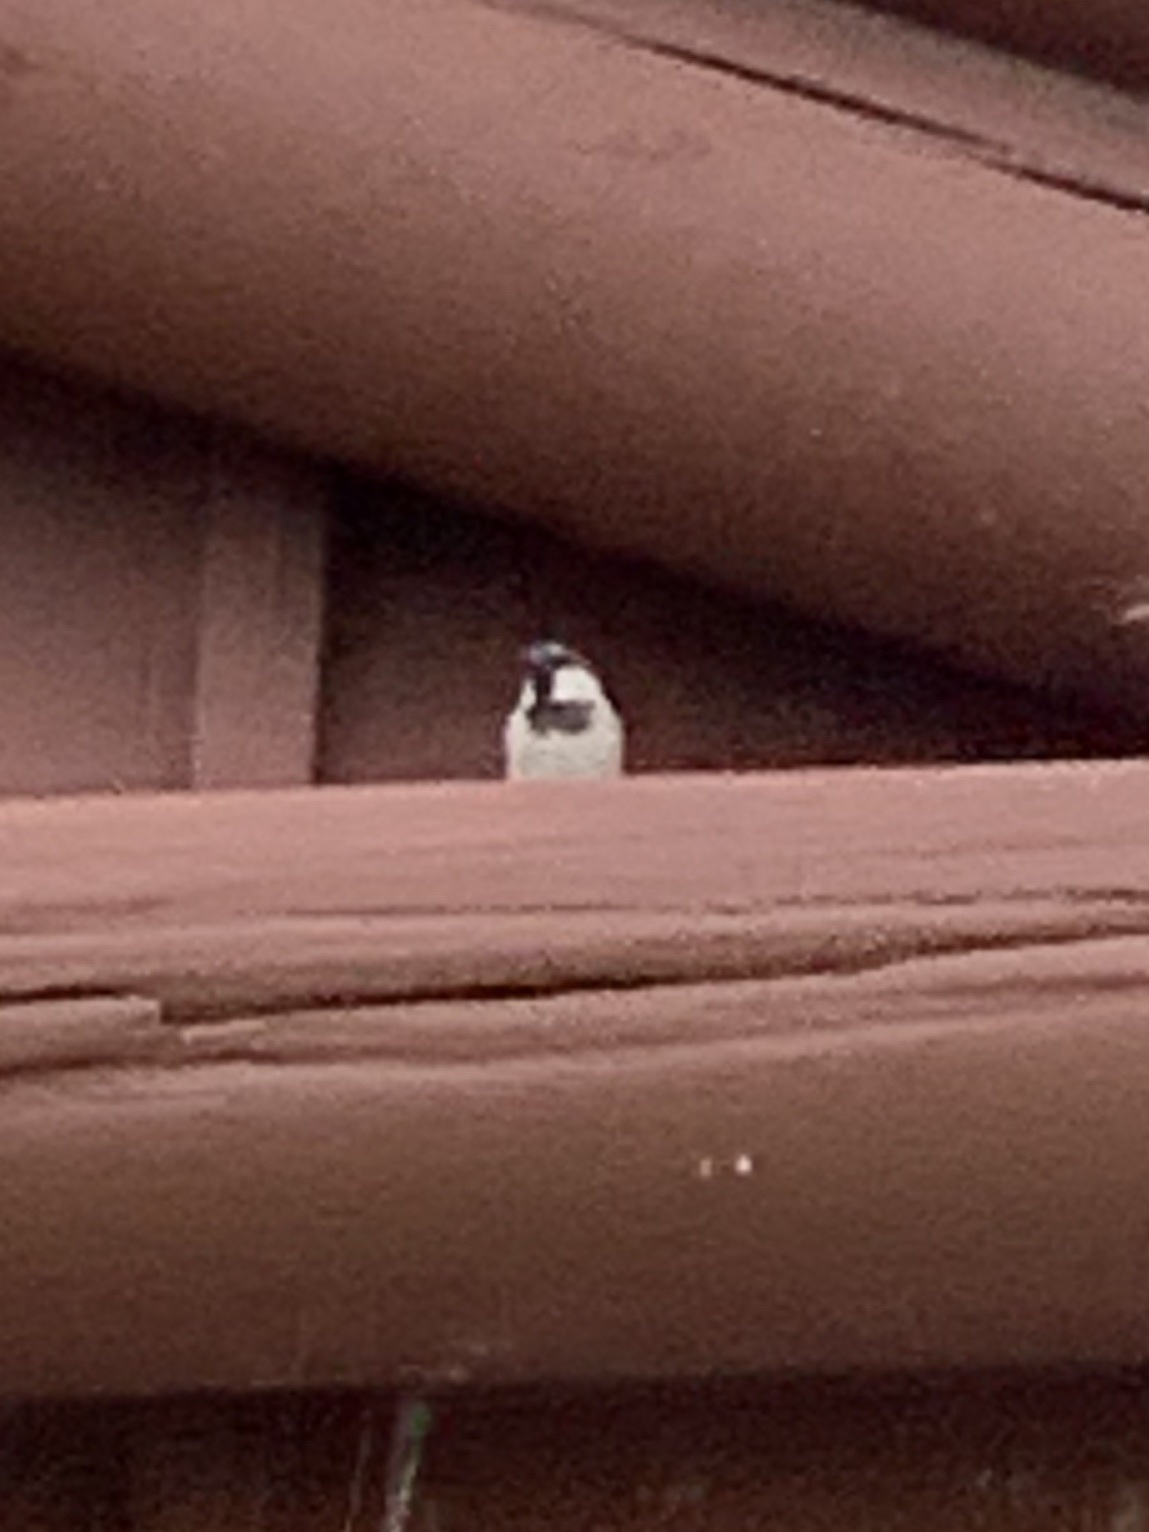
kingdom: Animalia
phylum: Chordata
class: Aves
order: Passeriformes
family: Passeridae
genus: Passer
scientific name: Passer domesticus
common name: House sparrow
